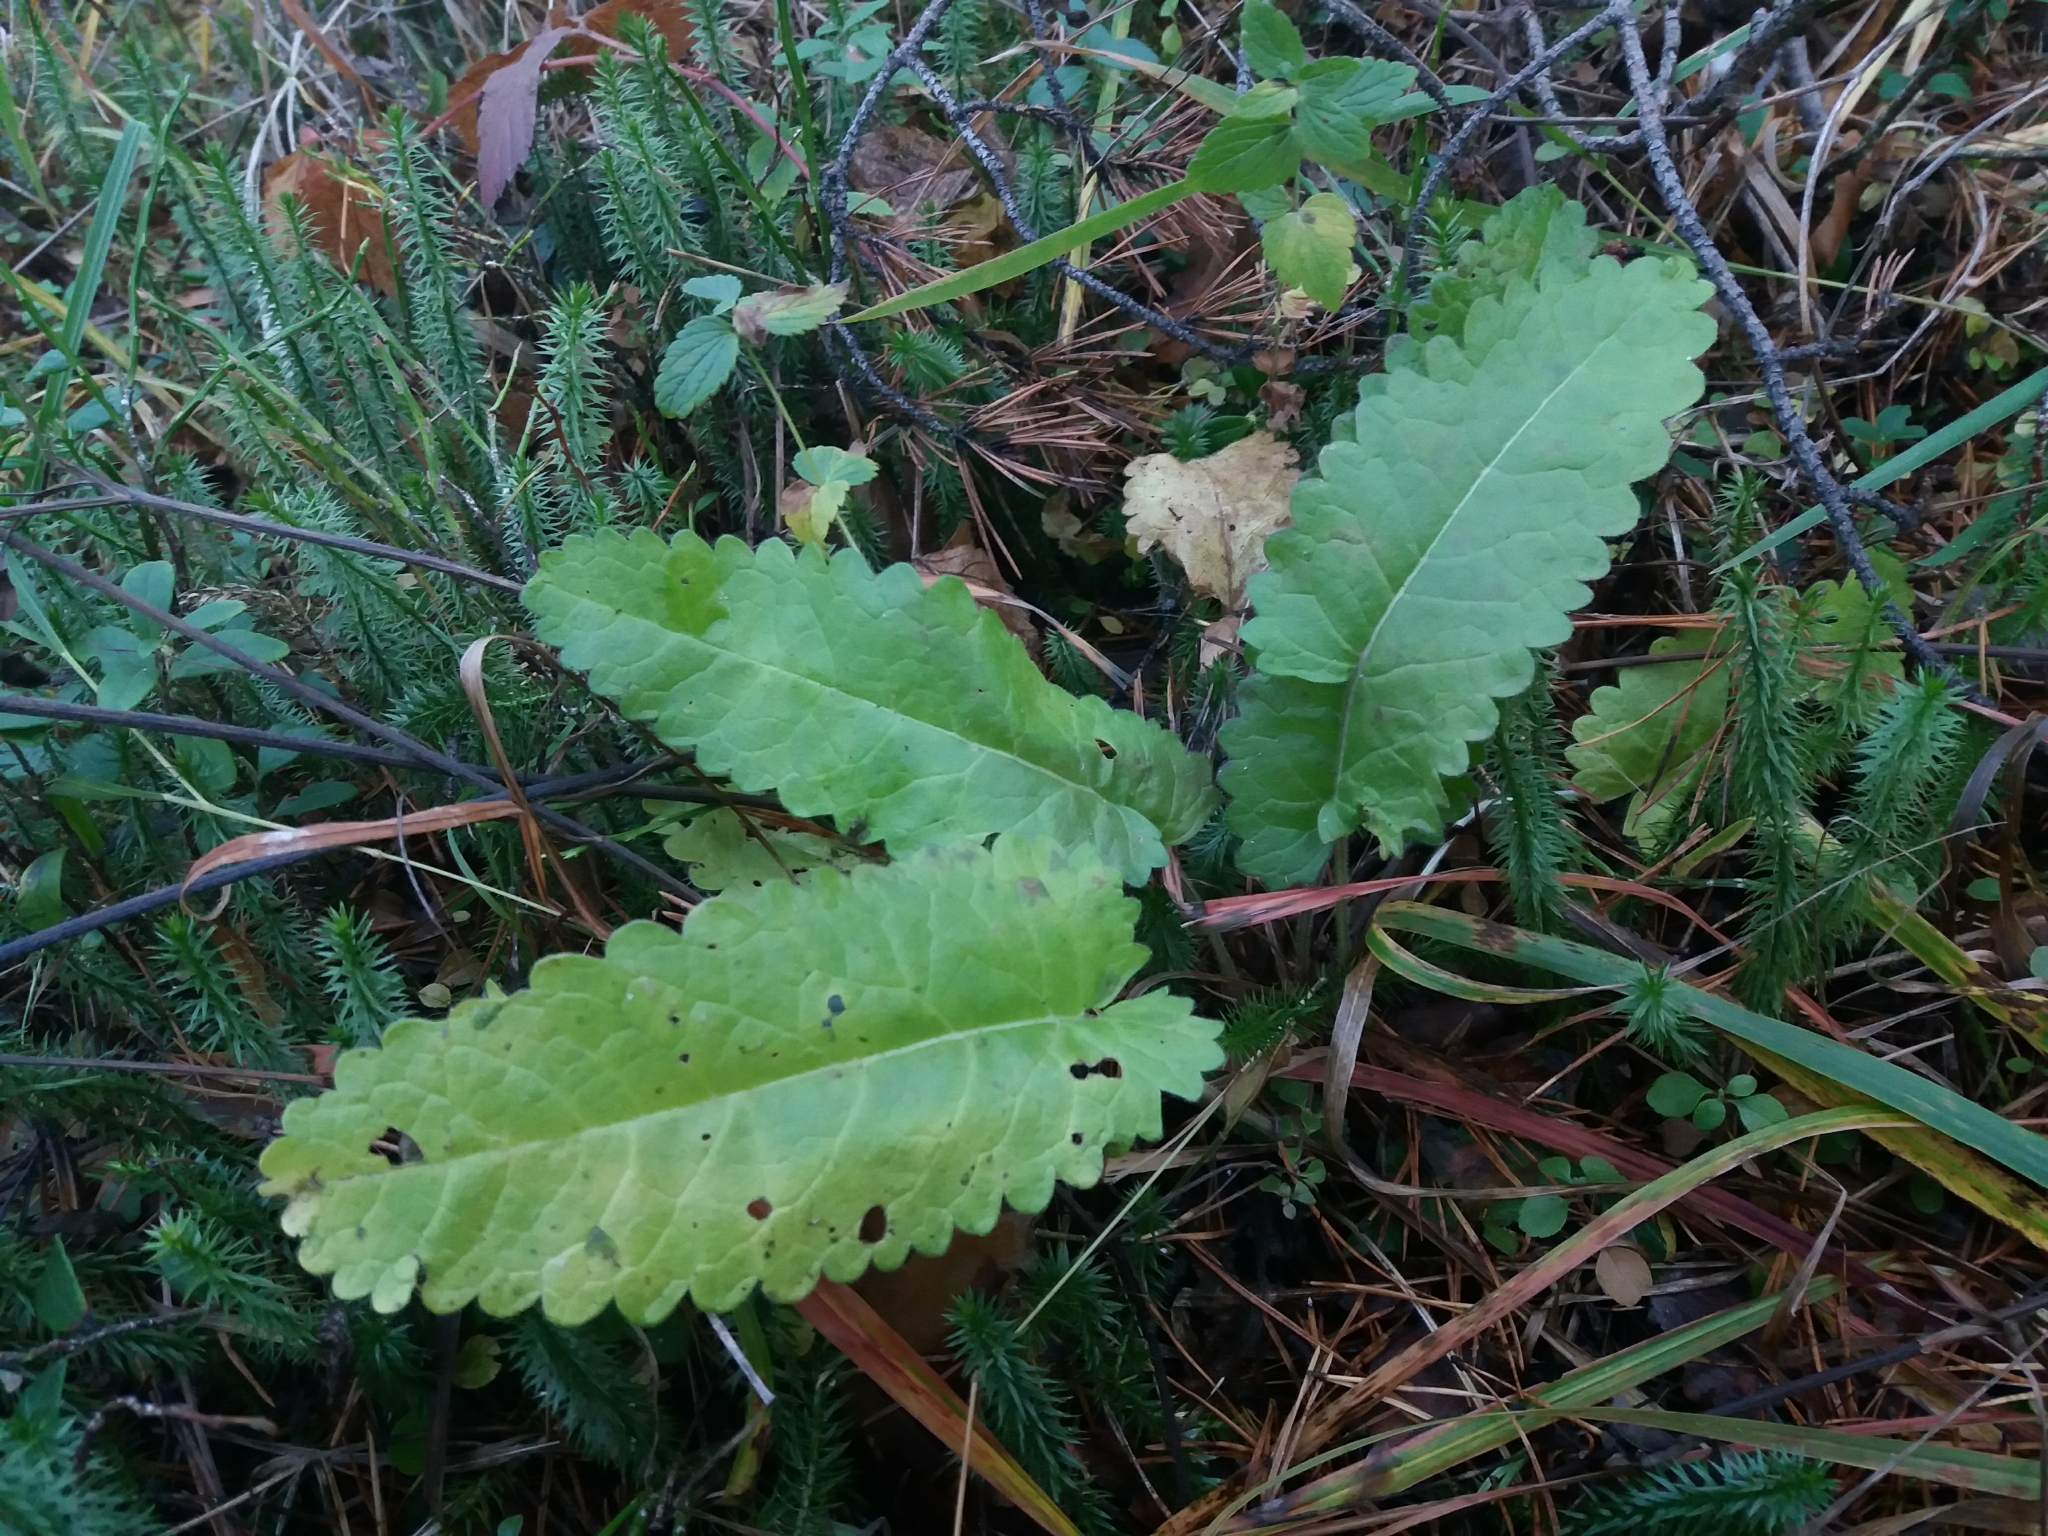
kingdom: Plantae
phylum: Tracheophyta
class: Magnoliopsida
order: Lamiales
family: Lamiaceae
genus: Betonica
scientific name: Betonica officinalis
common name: Bishop's-wort
